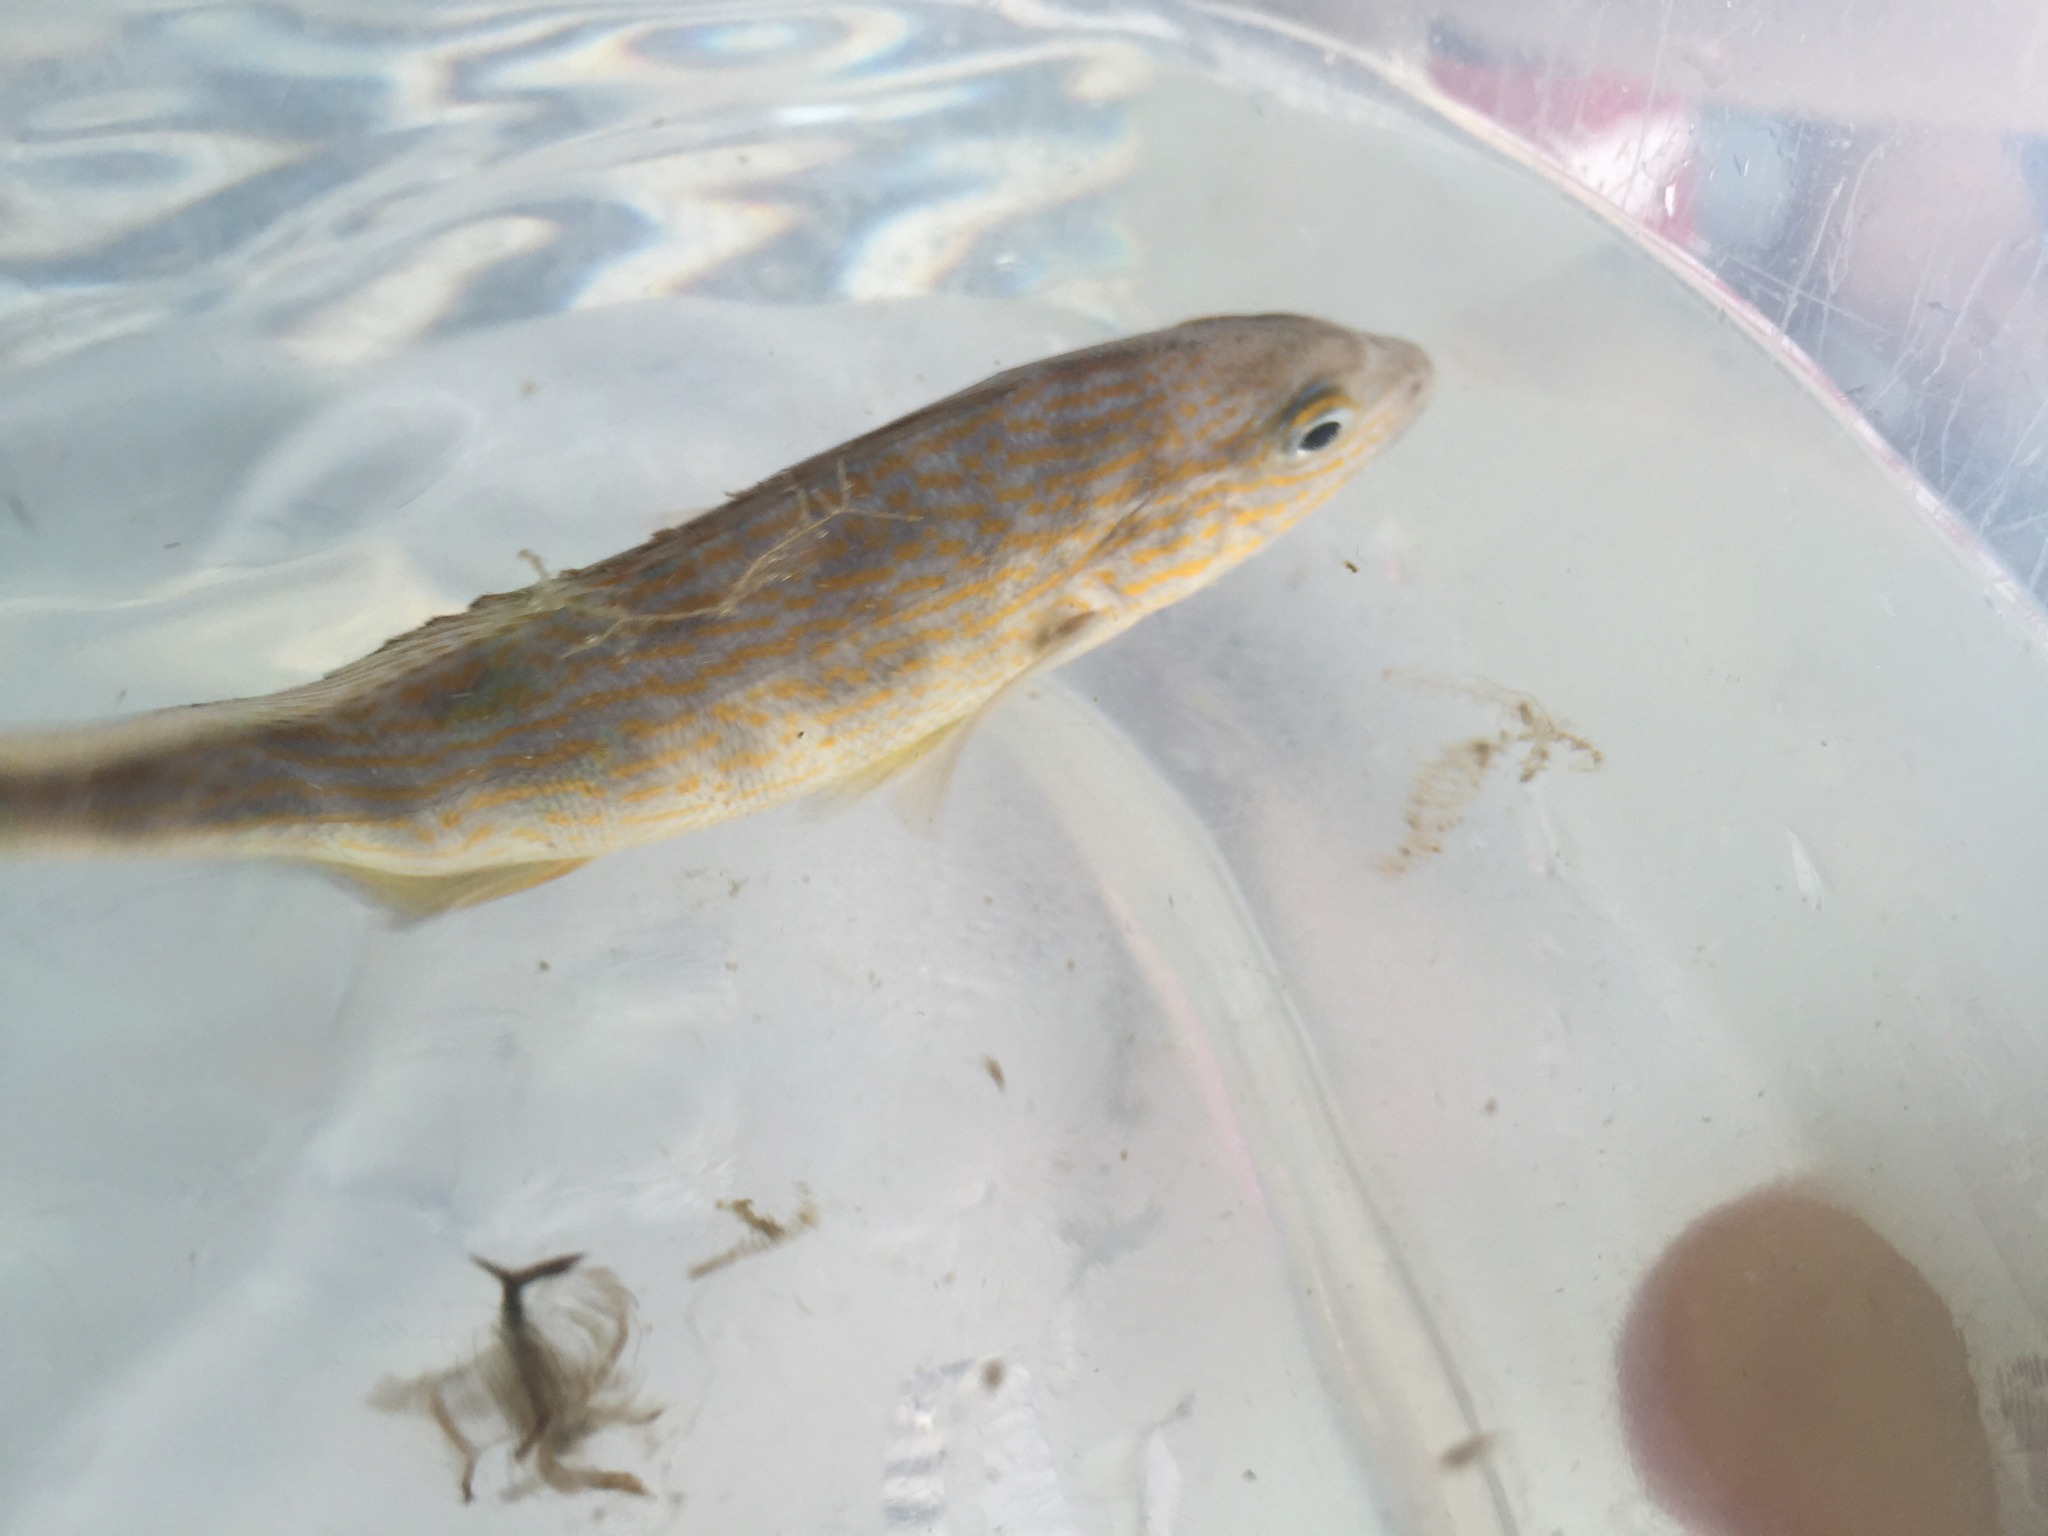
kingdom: Animalia
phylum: Chordata
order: Perciformes
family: Haemulidae
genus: Orthopristis
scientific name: Orthopristis chrysoptera
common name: Pigfish
